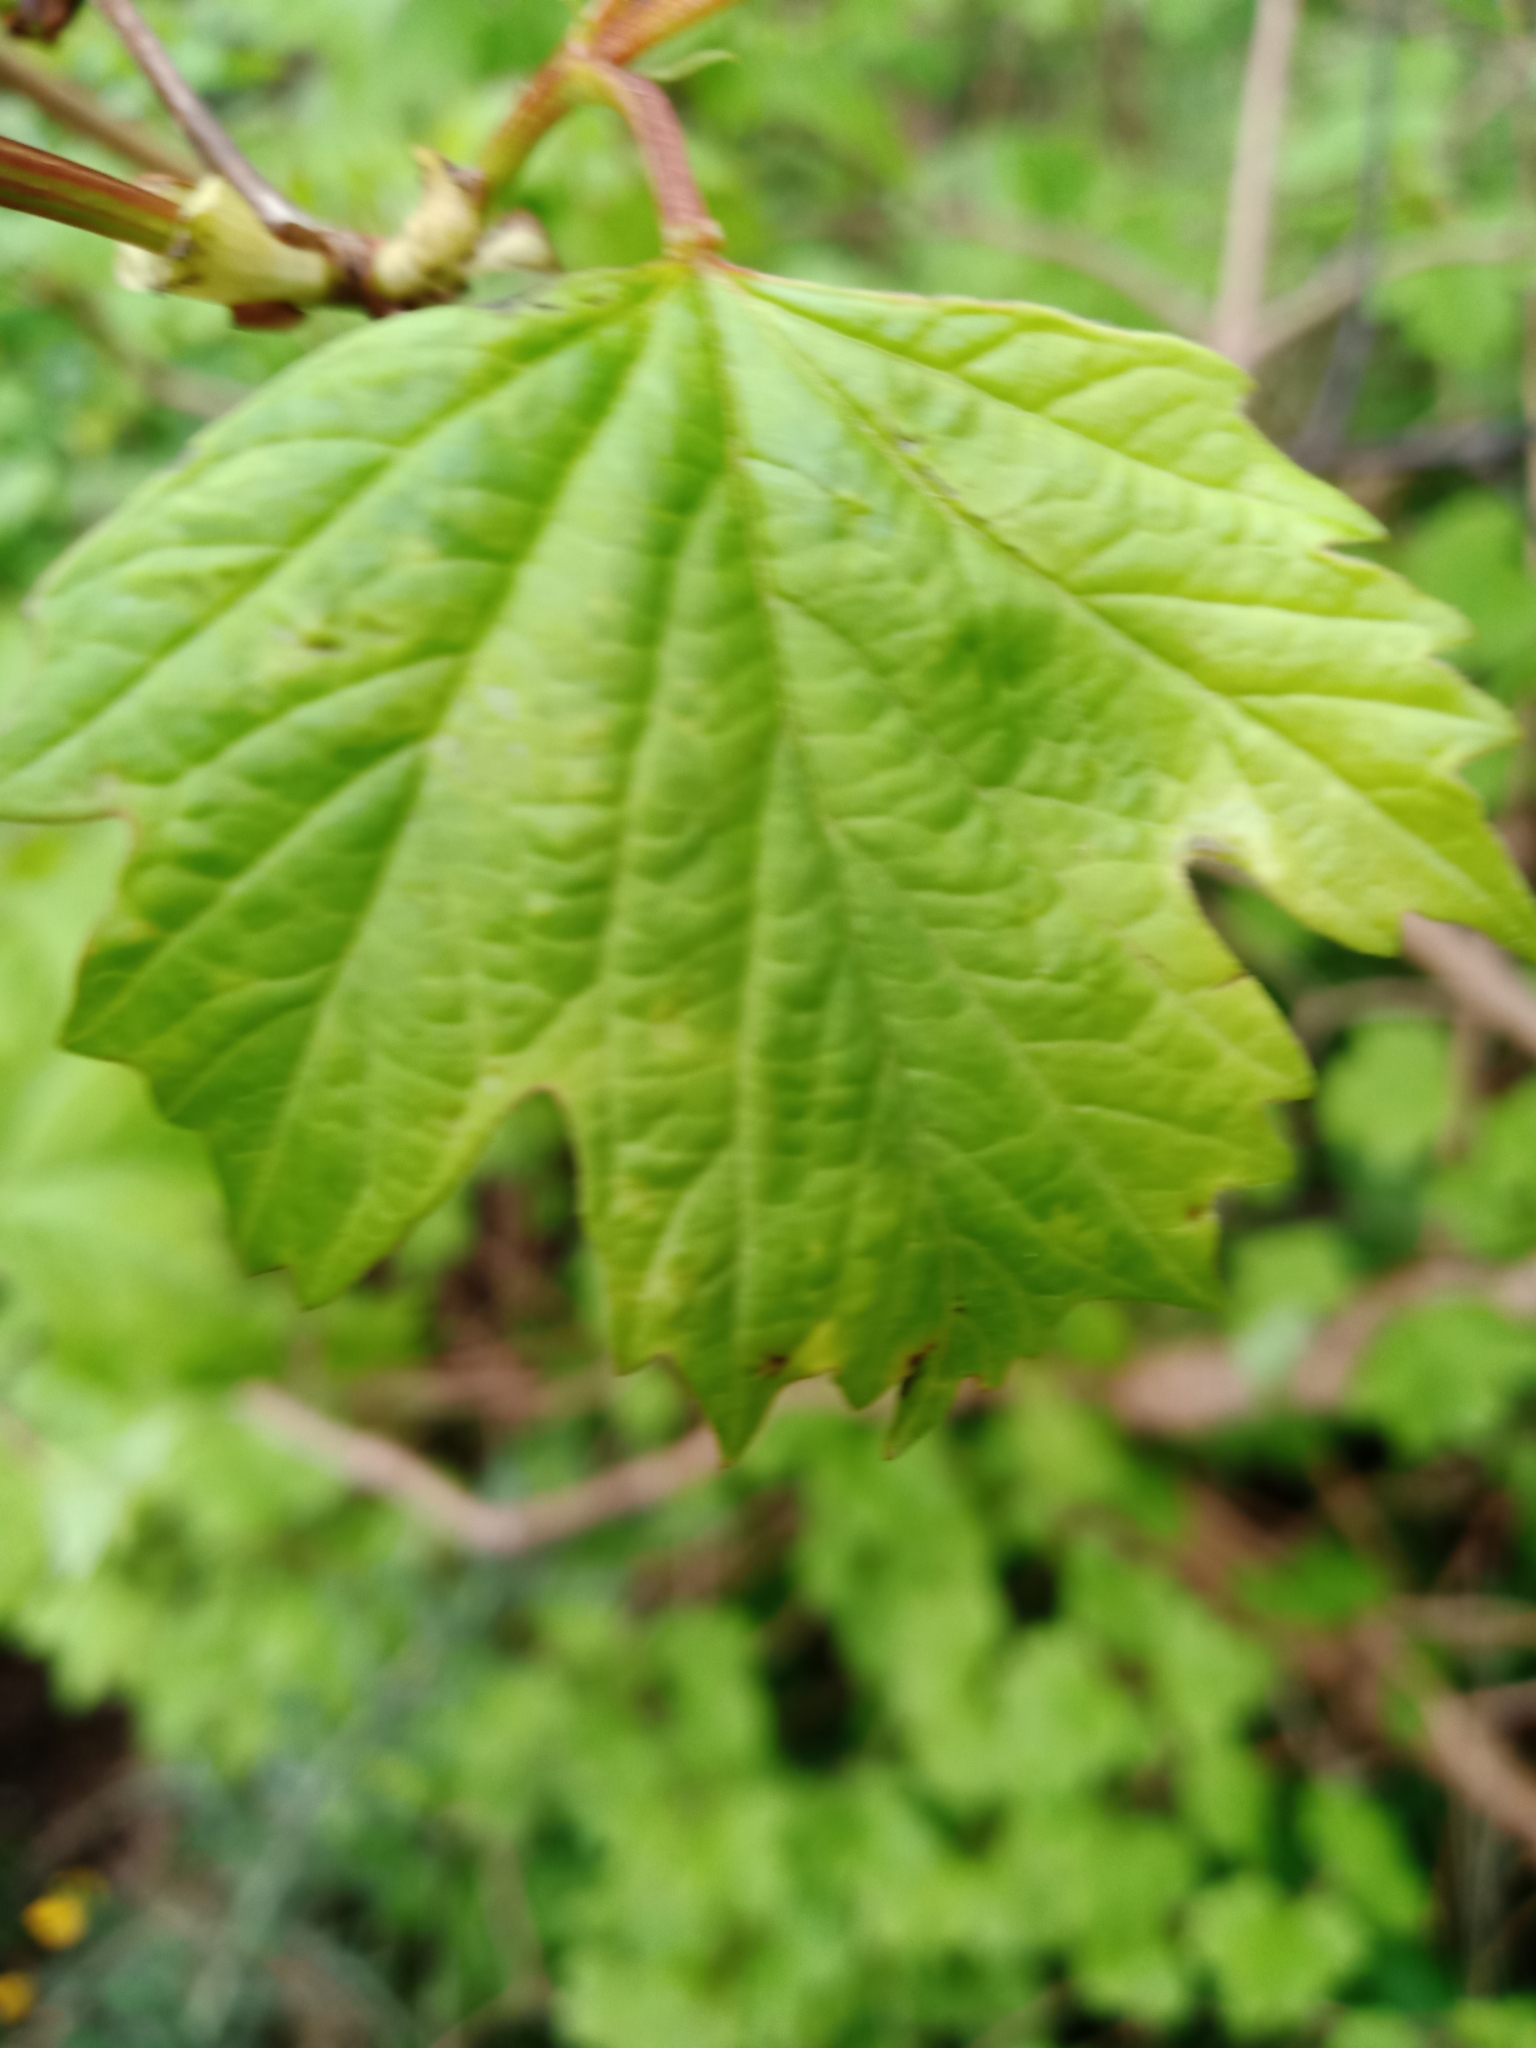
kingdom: Plantae
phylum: Tracheophyta
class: Magnoliopsida
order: Dipsacales
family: Viburnaceae
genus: Viburnum
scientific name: Viburnum opulus
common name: Guelder-rose
